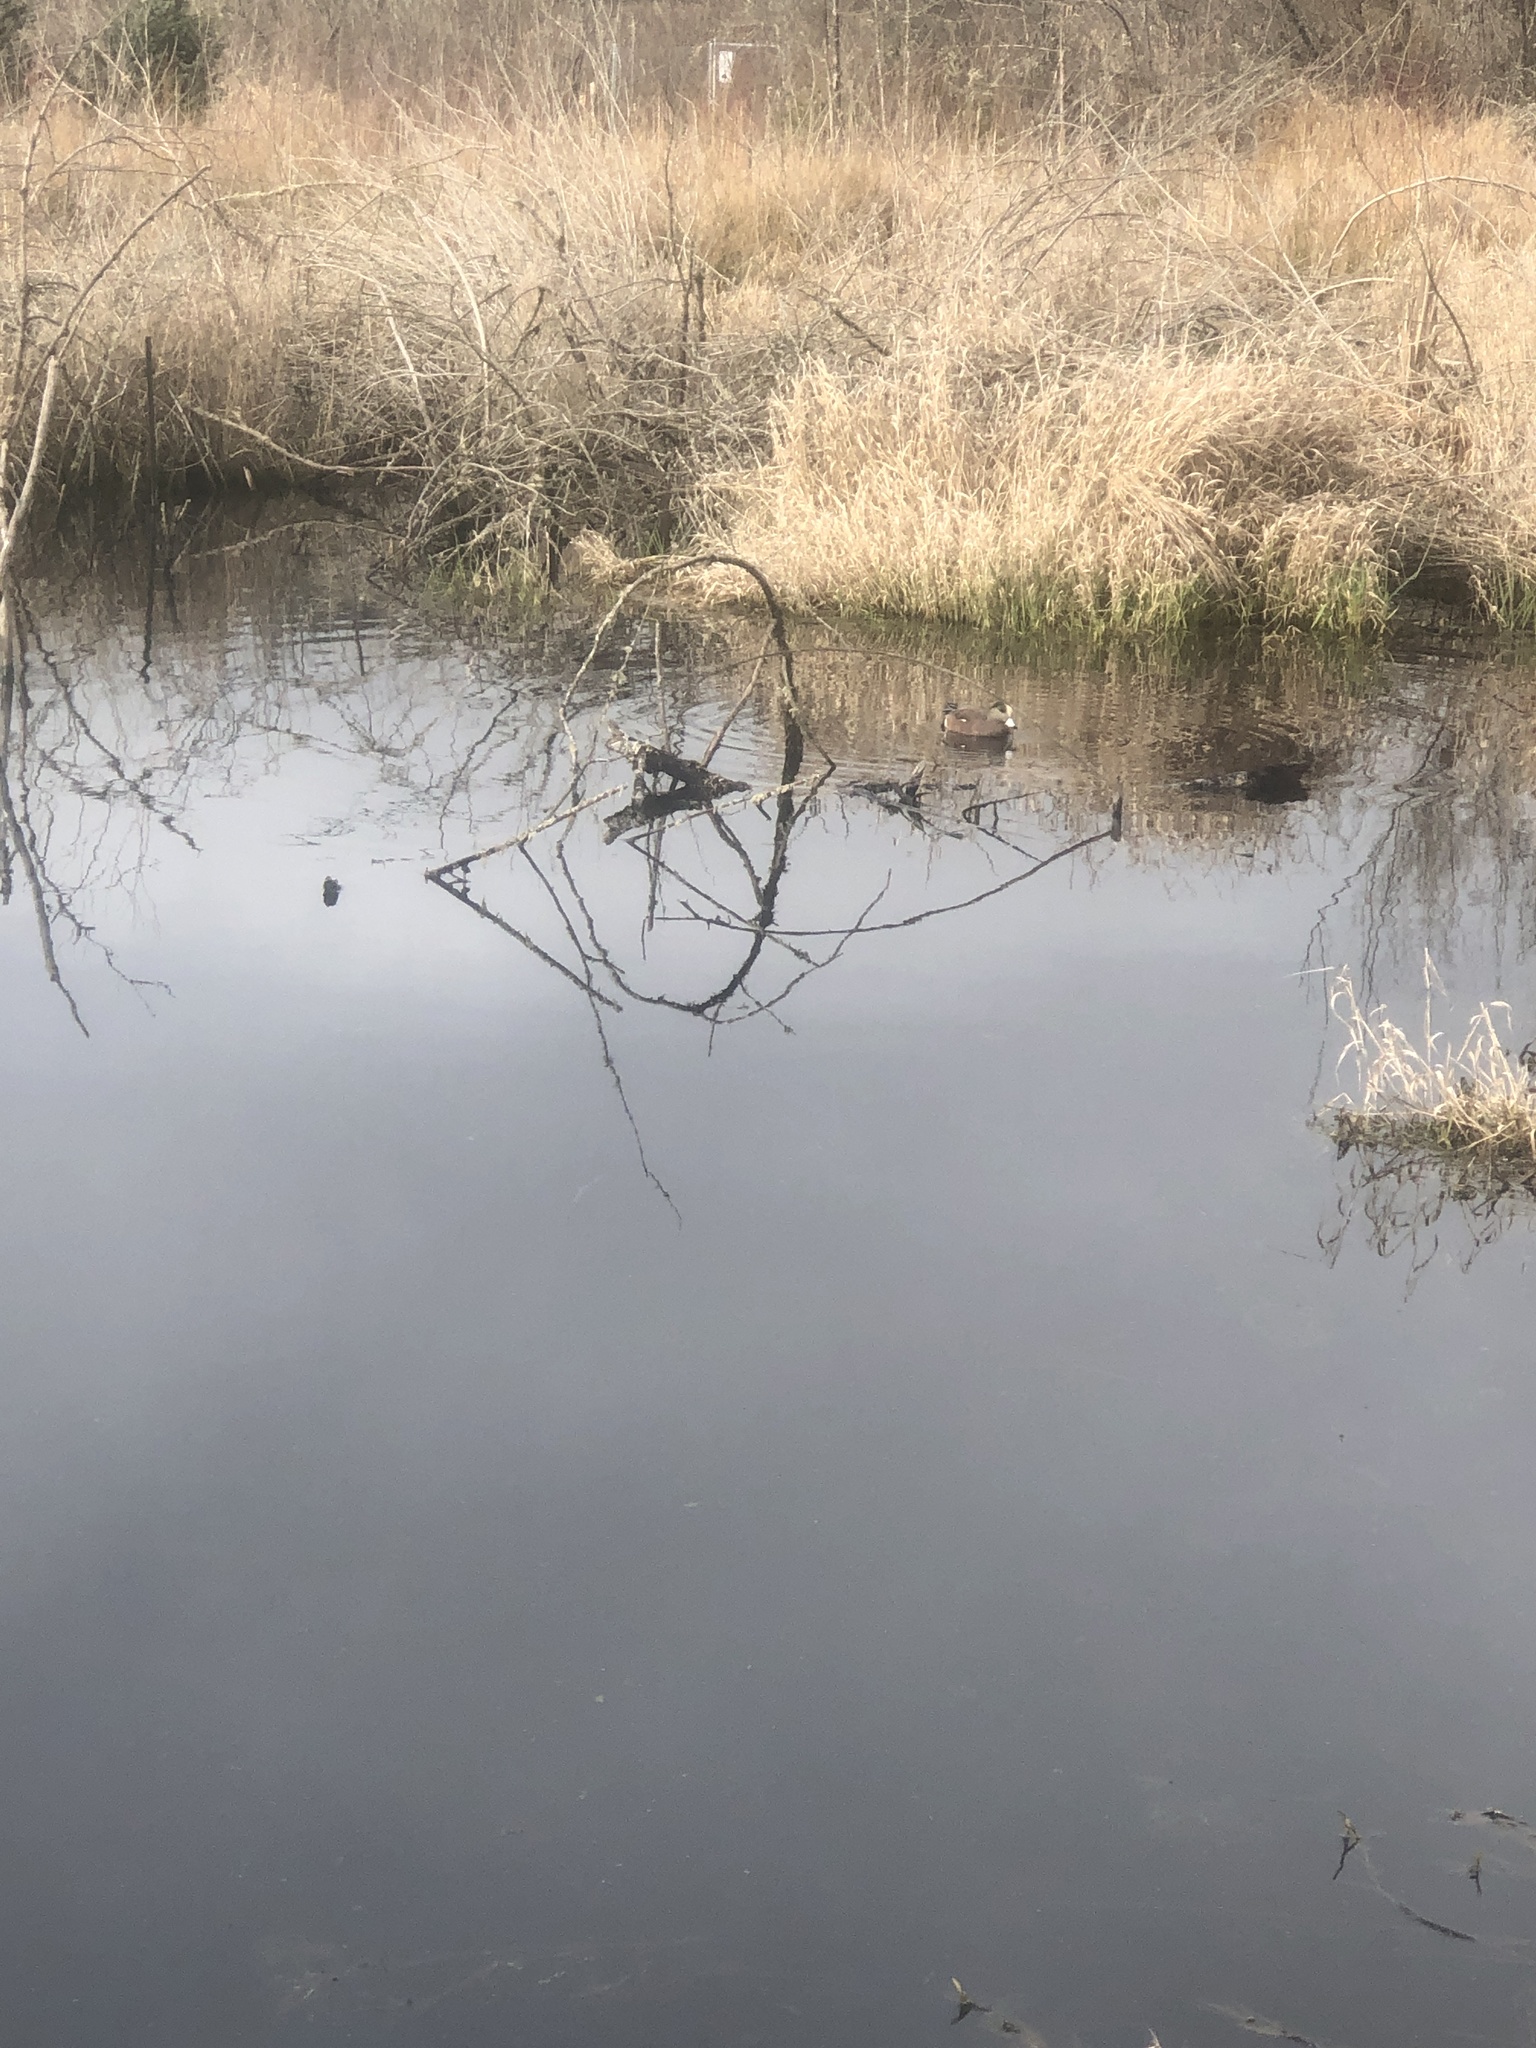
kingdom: Animalia
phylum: Chordata
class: Aves
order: Anseriformes
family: Anatidae
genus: Mareca
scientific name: Mareca americana
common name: American wigeon
